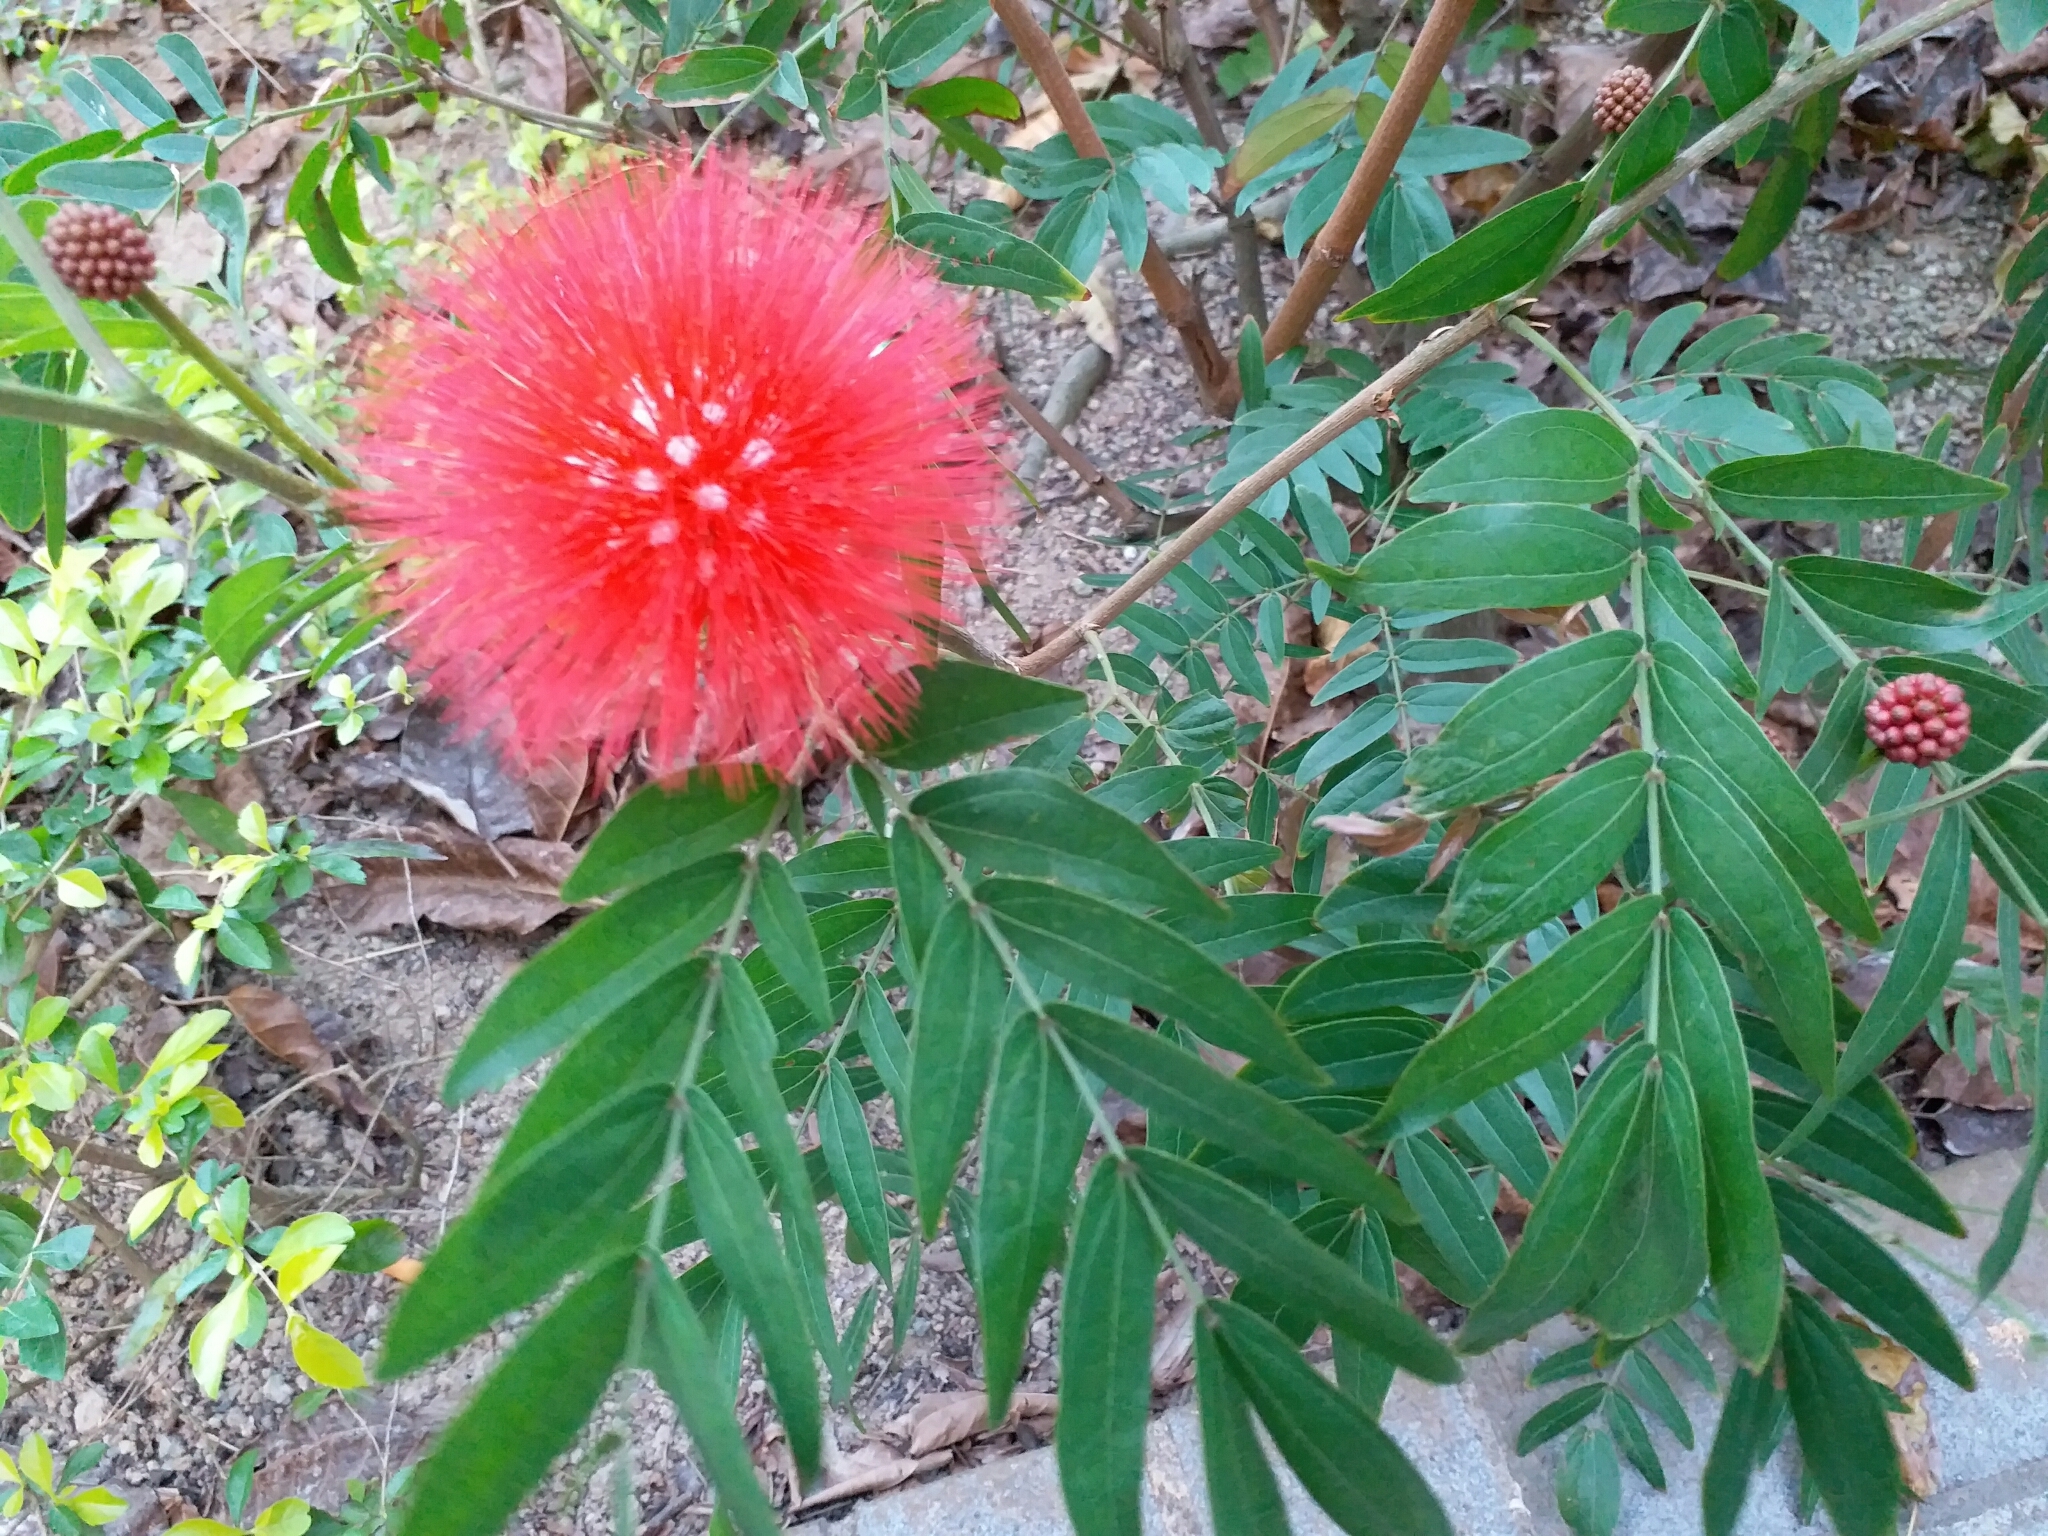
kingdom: Plantae
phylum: Tracheophyta
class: Magnoliopsida
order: Fabales
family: Fabaceae
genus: Calliandra
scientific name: Calliandra haematocephala
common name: Blood red tassel flower
